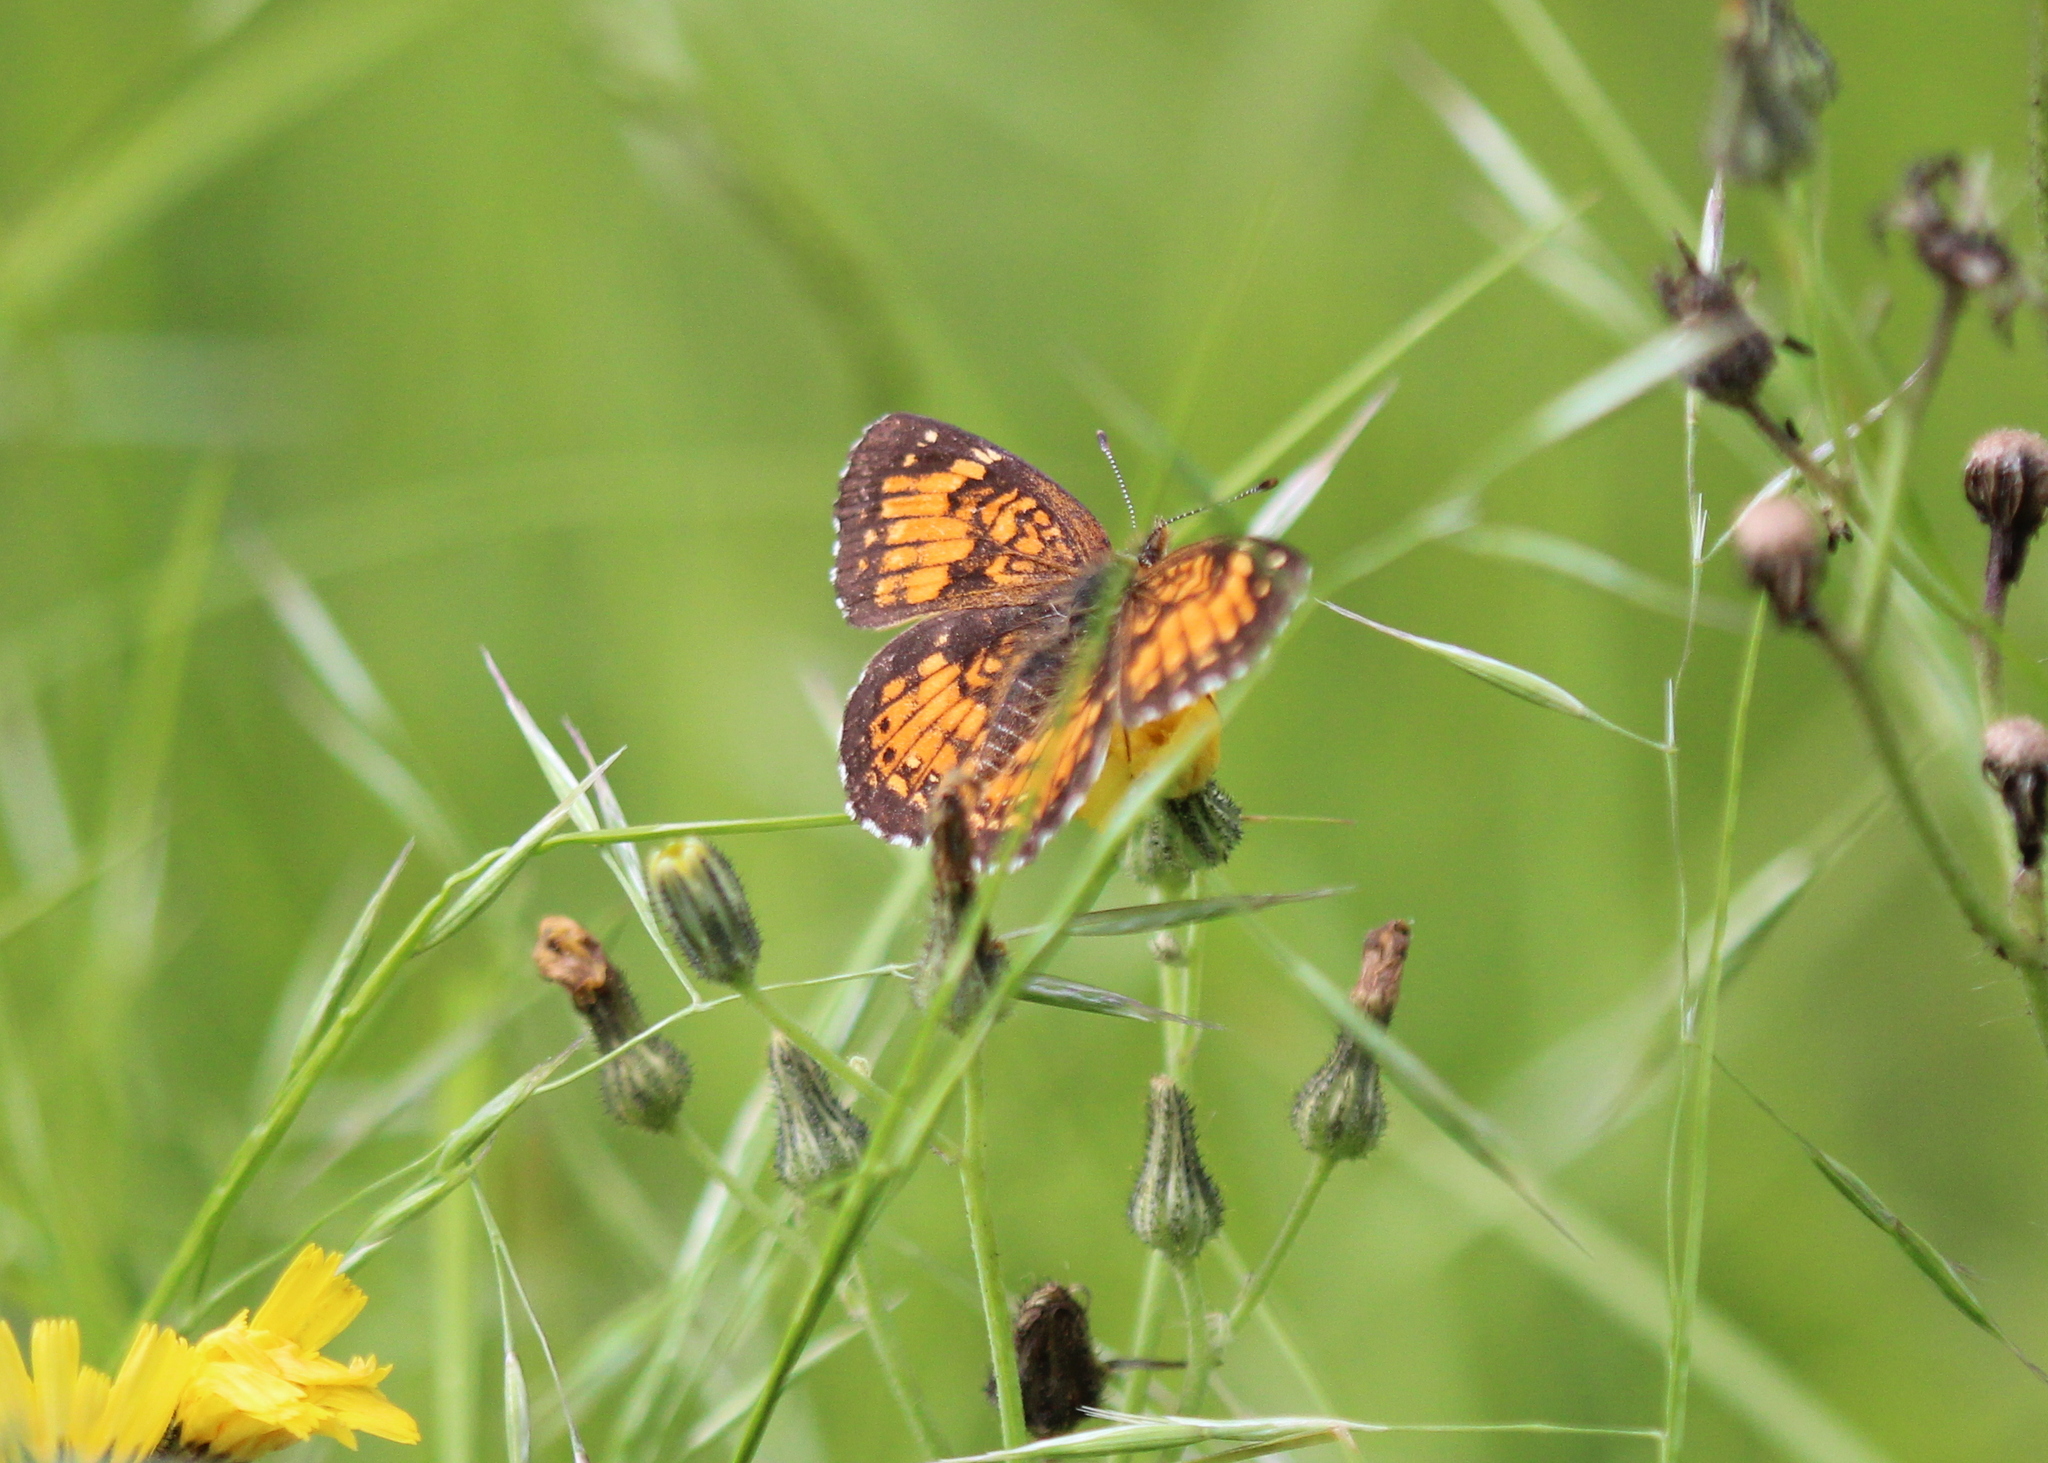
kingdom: Animalia
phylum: Arthropoda
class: Insecta
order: Lepidoptera
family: Nymphalidae
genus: Chlosyne
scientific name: Chlosyne harrisii
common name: Harris's checkerspot
